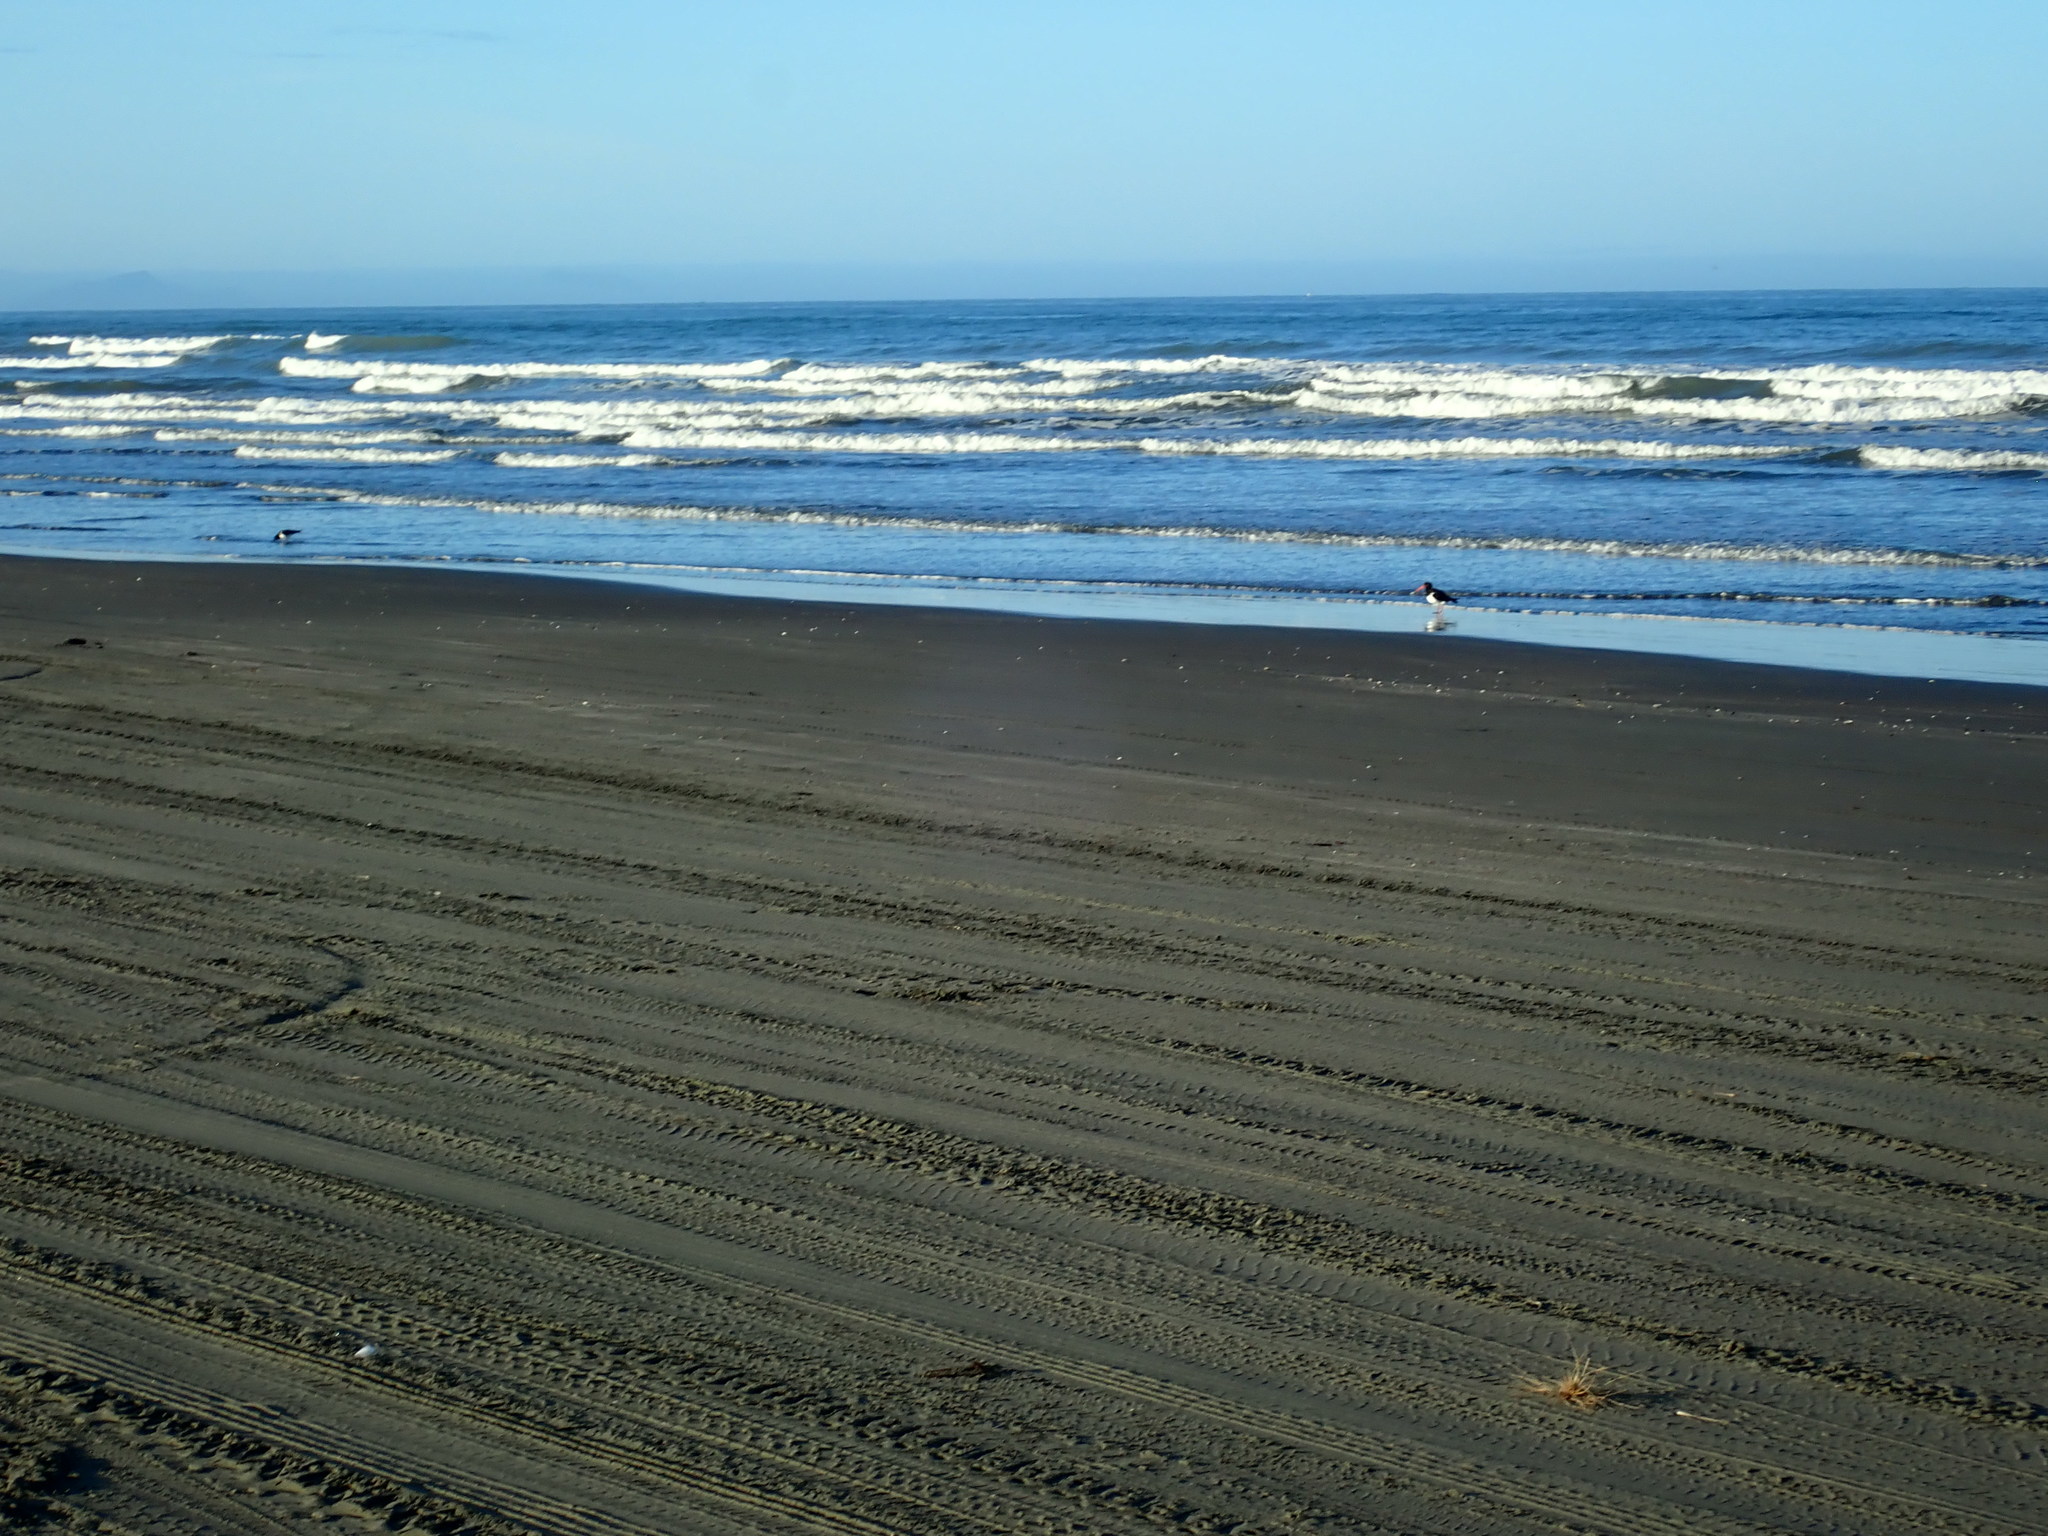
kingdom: Animalia
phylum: Chordata
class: Aves
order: Charadriiformes
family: Haematopodidae
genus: Haematopus
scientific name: Haematopus finschi
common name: South island oystercatcher
